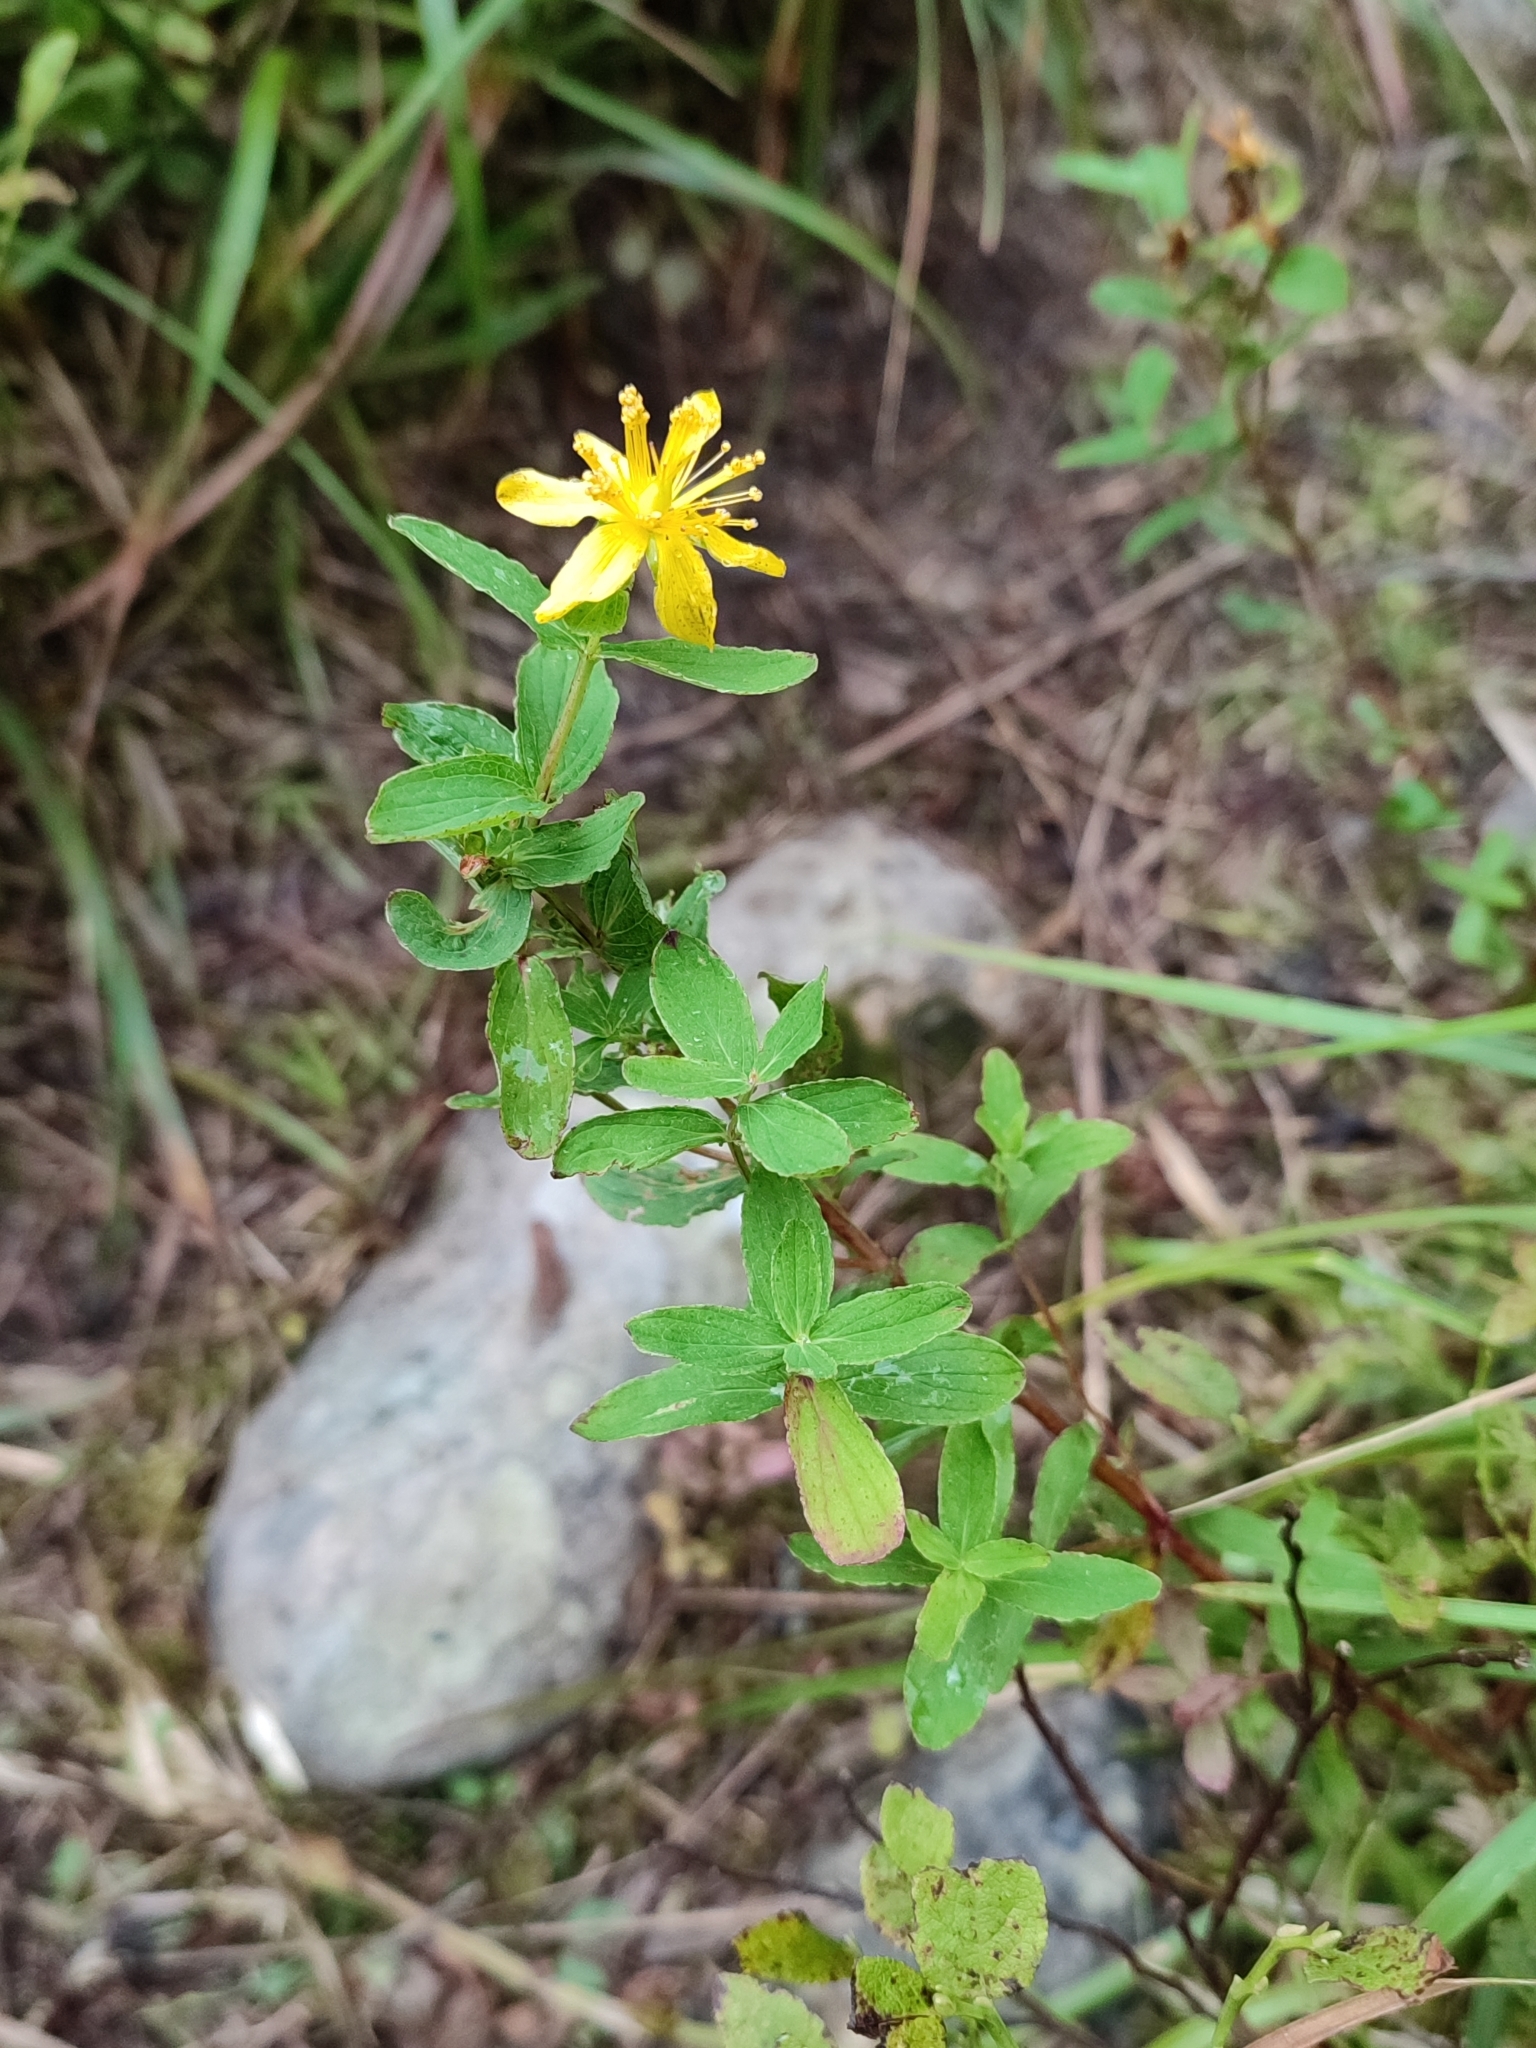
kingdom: Plantae
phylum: Tracheophyta
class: Magnoliopsida
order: Malpighiales
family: Hypericaceae
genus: Hypericum
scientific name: Hypericum maculatum
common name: Imperforate st. john's-wort
